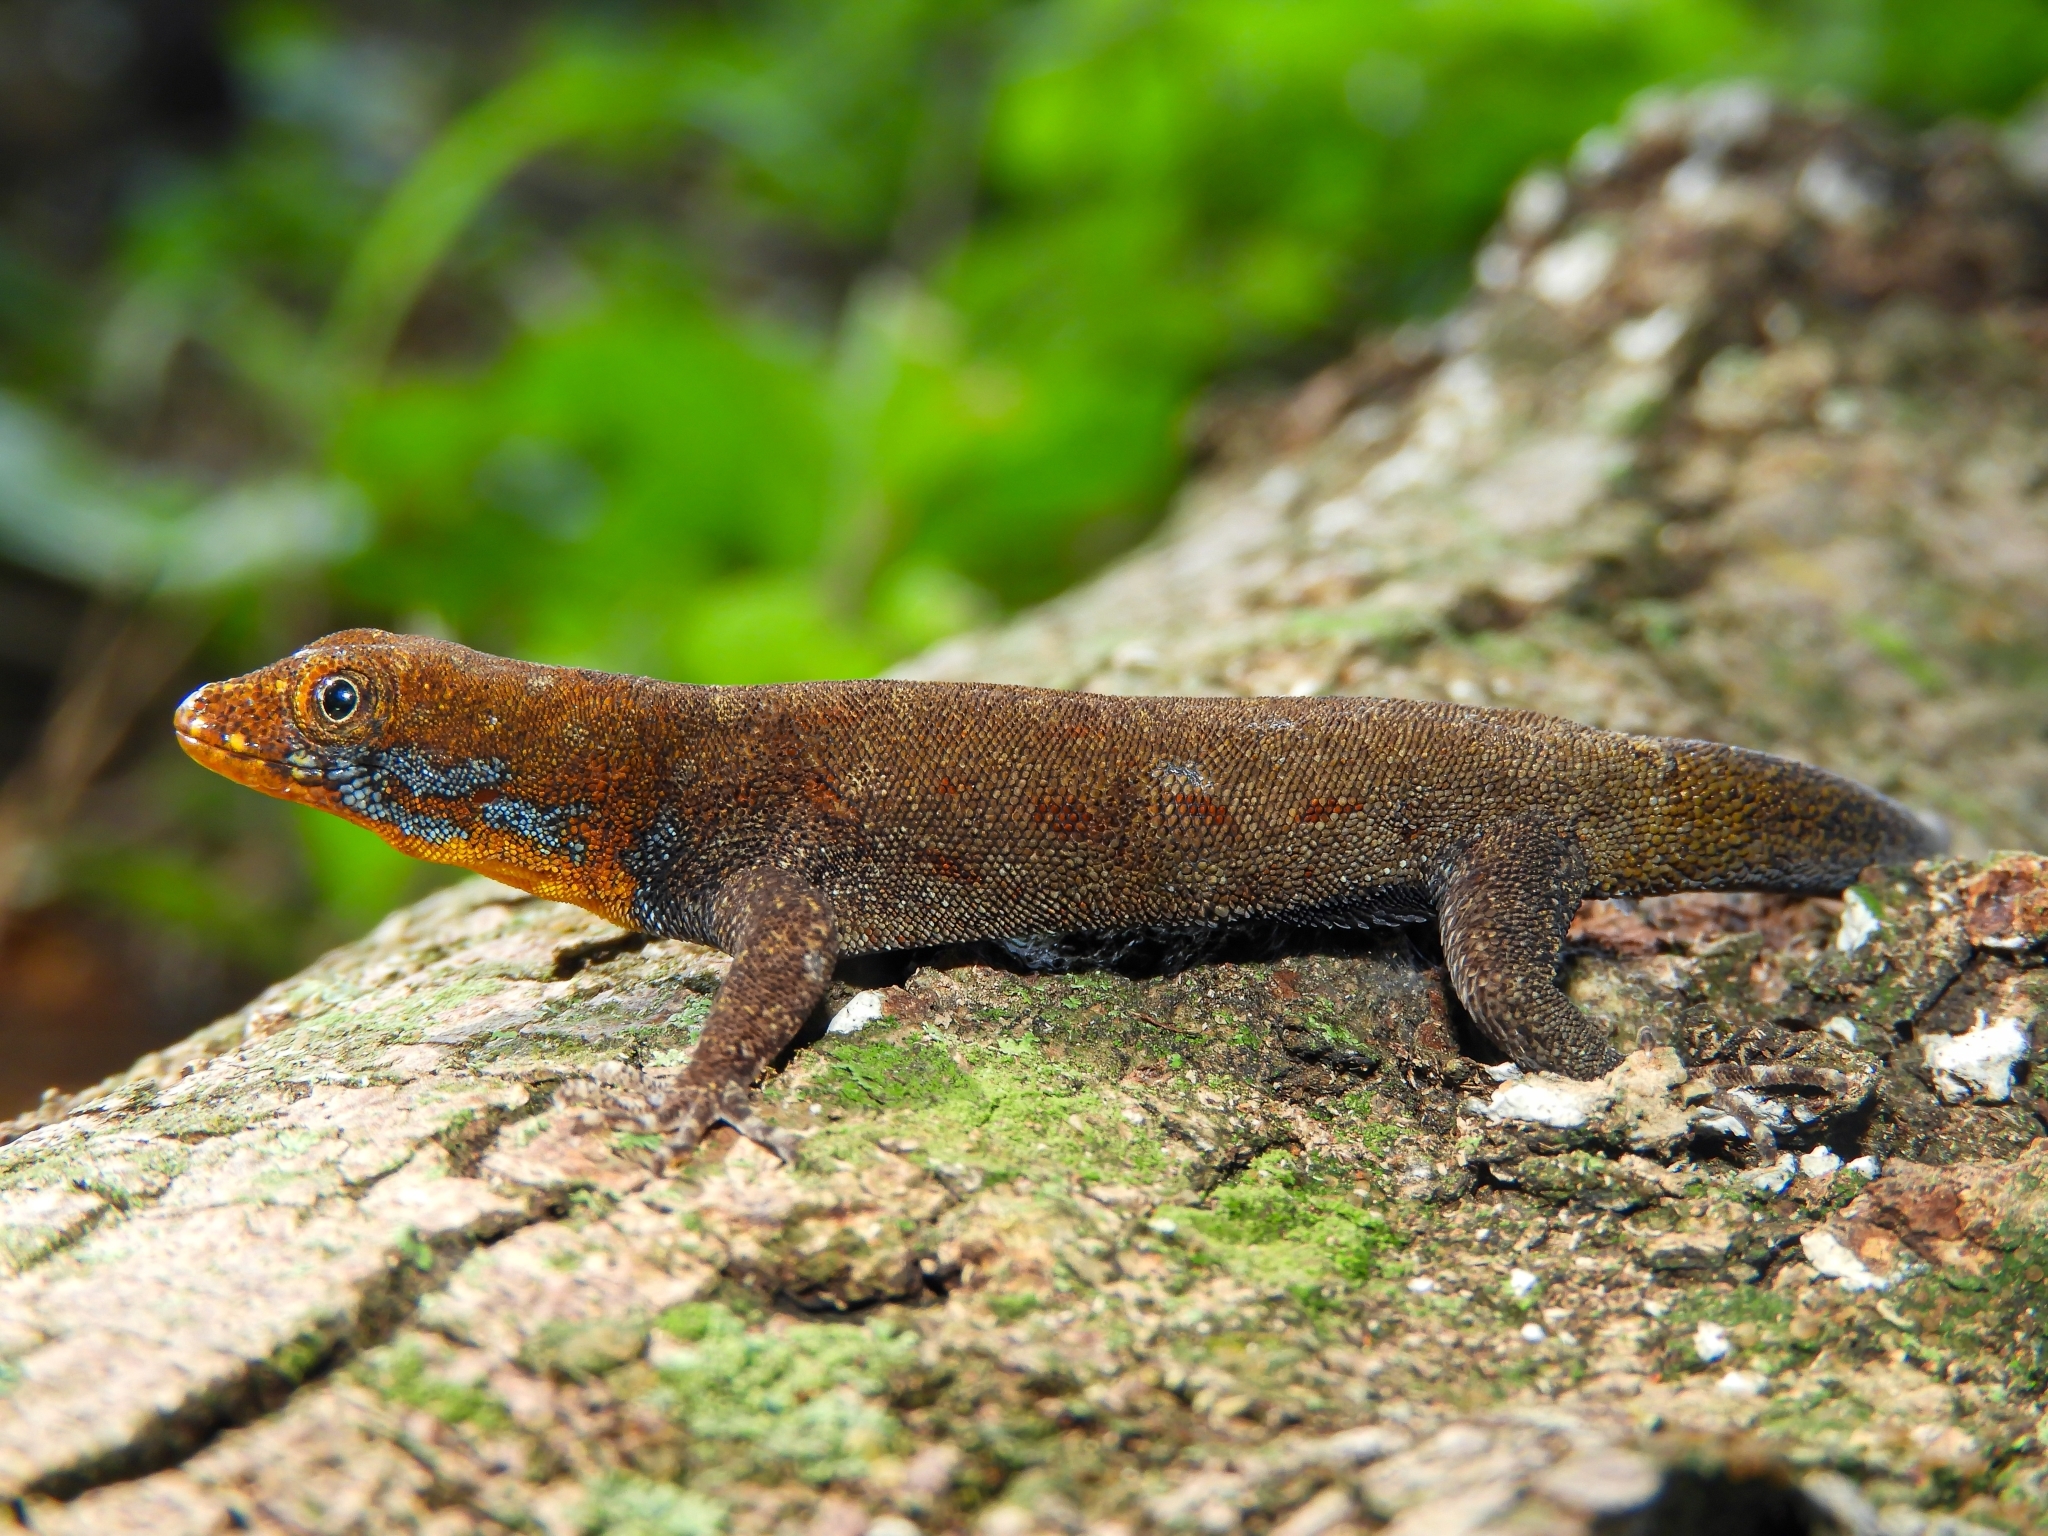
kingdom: Animalia
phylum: Chordata
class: Squamata
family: Sphaerodactylidae
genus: Gonatodes
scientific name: Gonatodes albogularis
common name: Yellow-headed gecko
